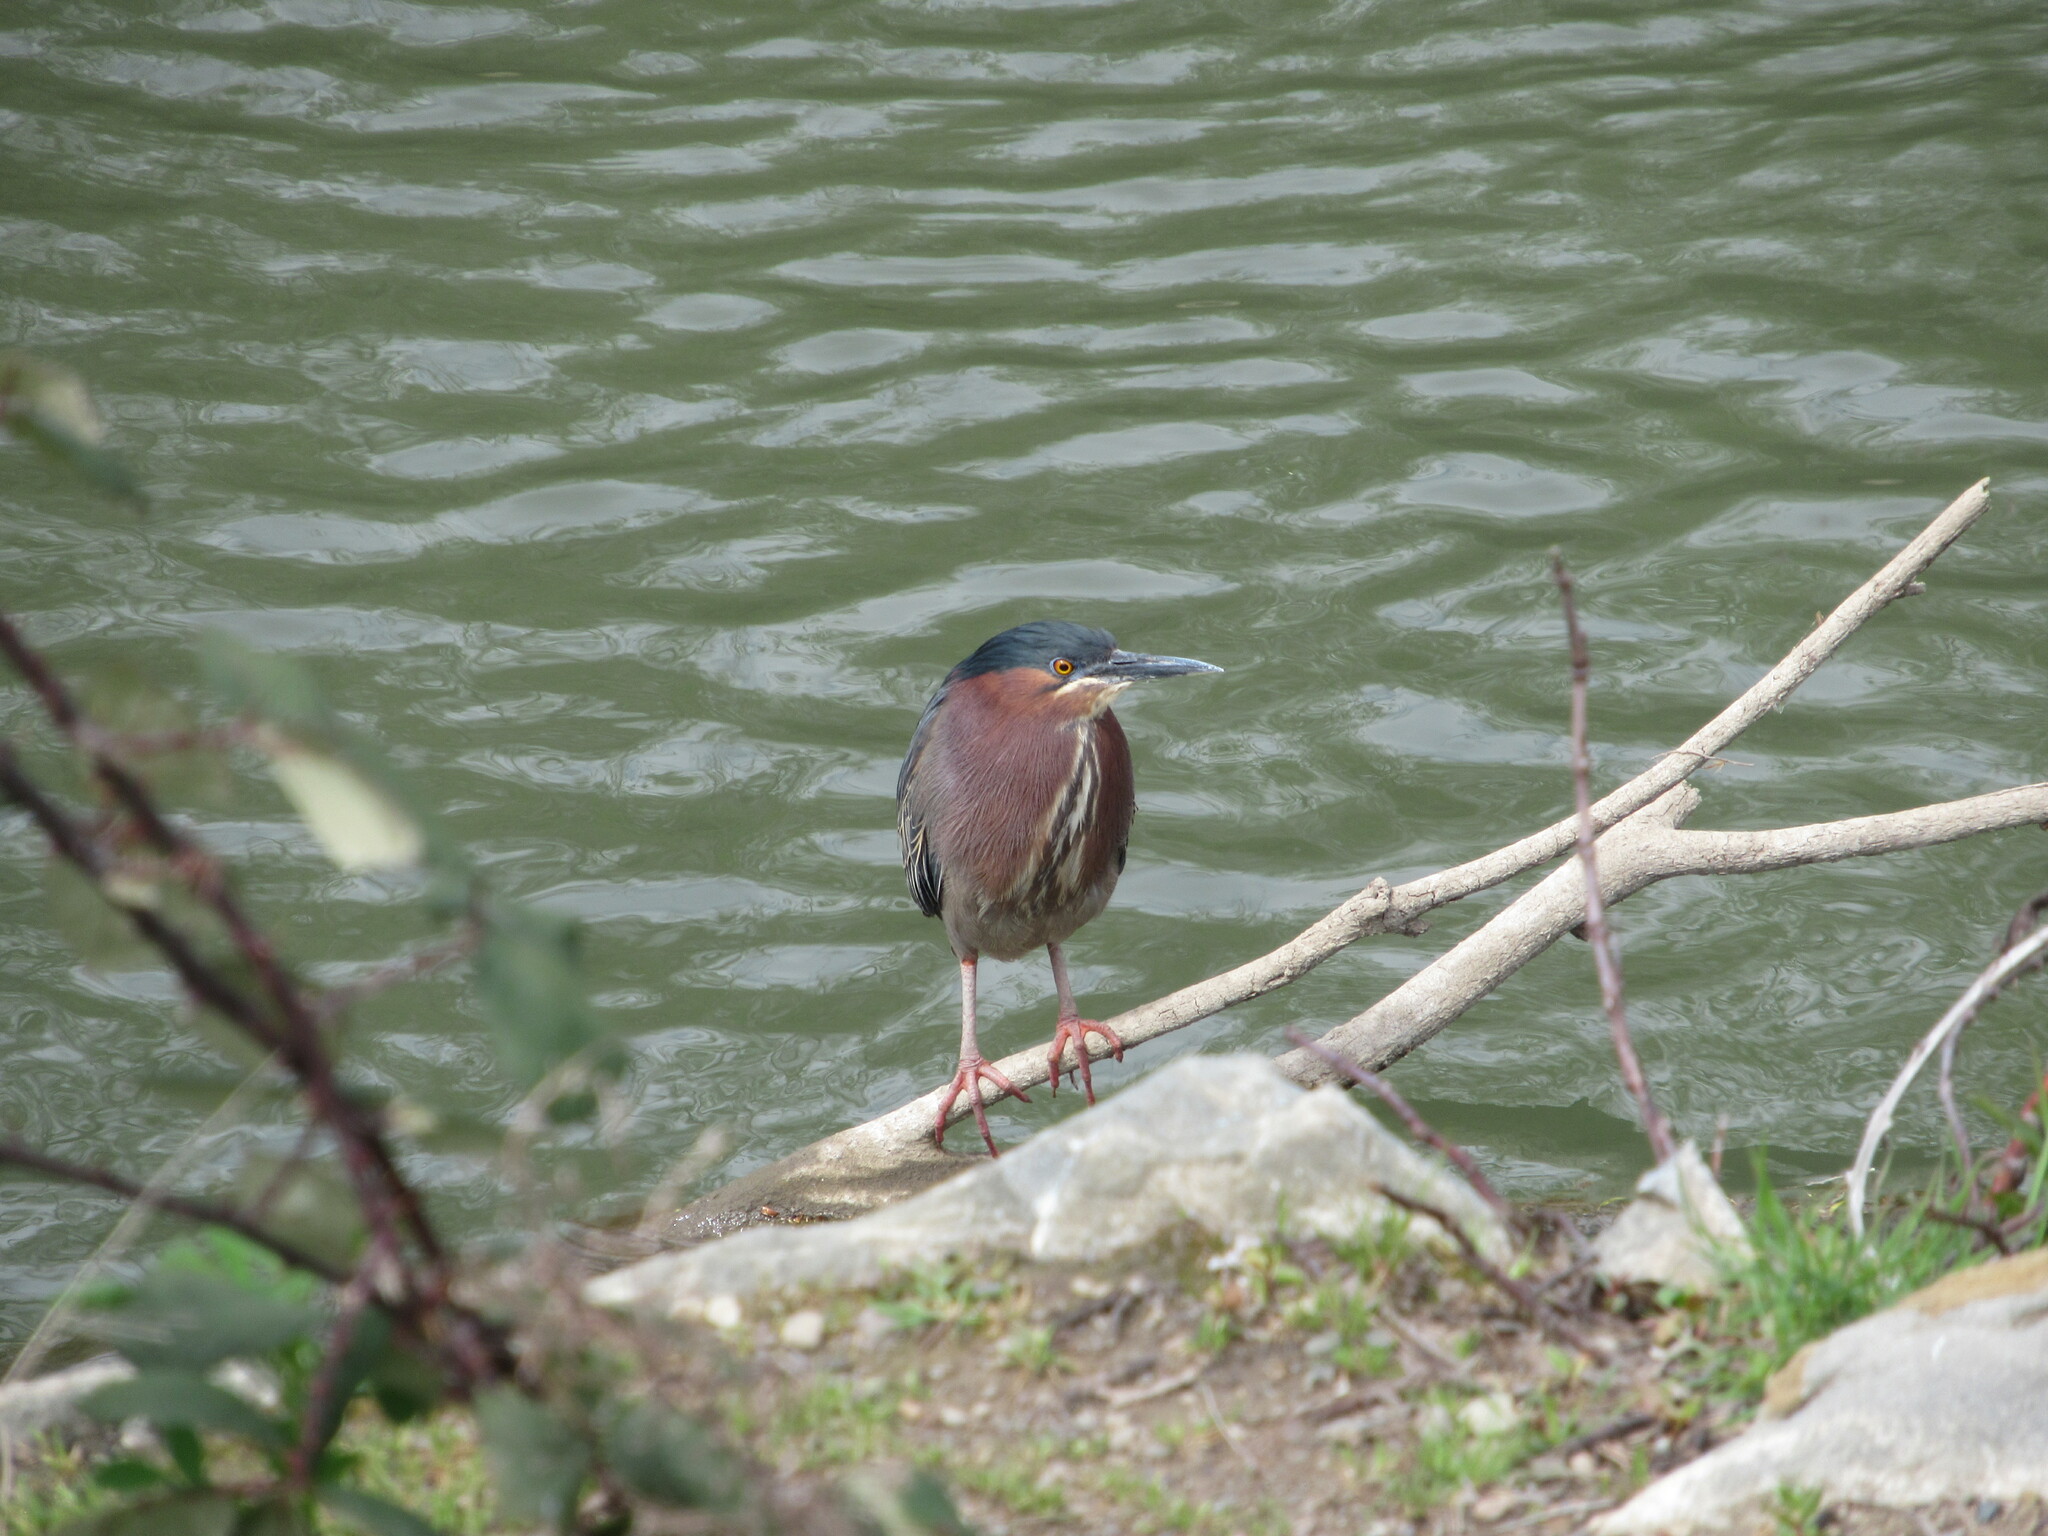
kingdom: Animalia
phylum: Chordata
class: Aves
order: Pelecaniformes
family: Ardeidae
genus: Butorides
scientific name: Butorides virescens
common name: Green heron
